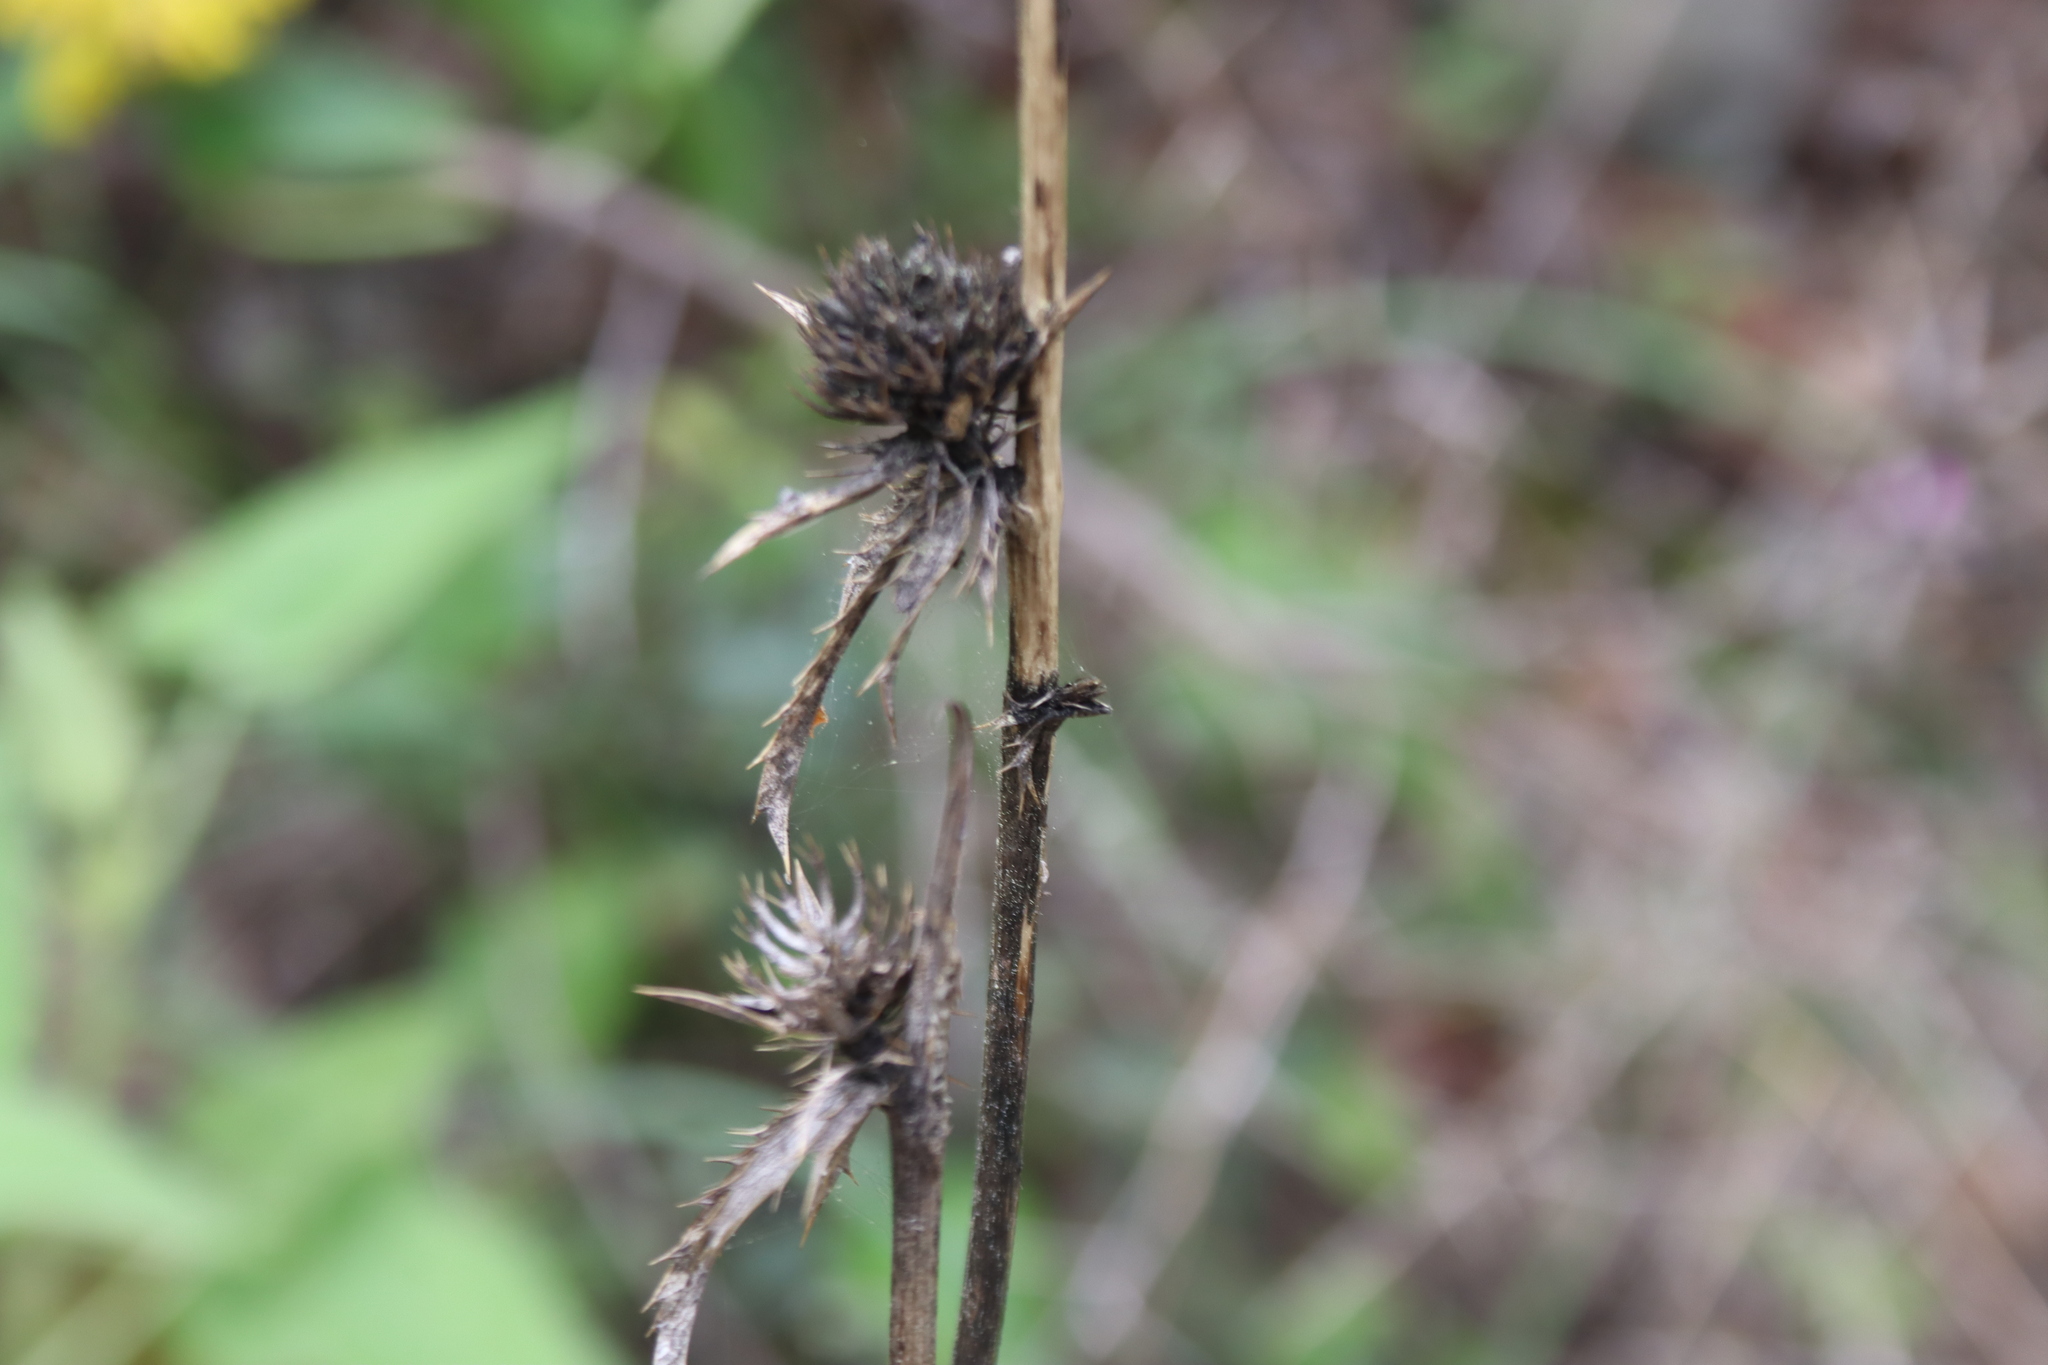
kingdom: Plantae
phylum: Tracheophyta
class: Magnoliopsida
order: Apiales
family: Apiaceae
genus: Eryngium
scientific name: Eryngium falcatum
